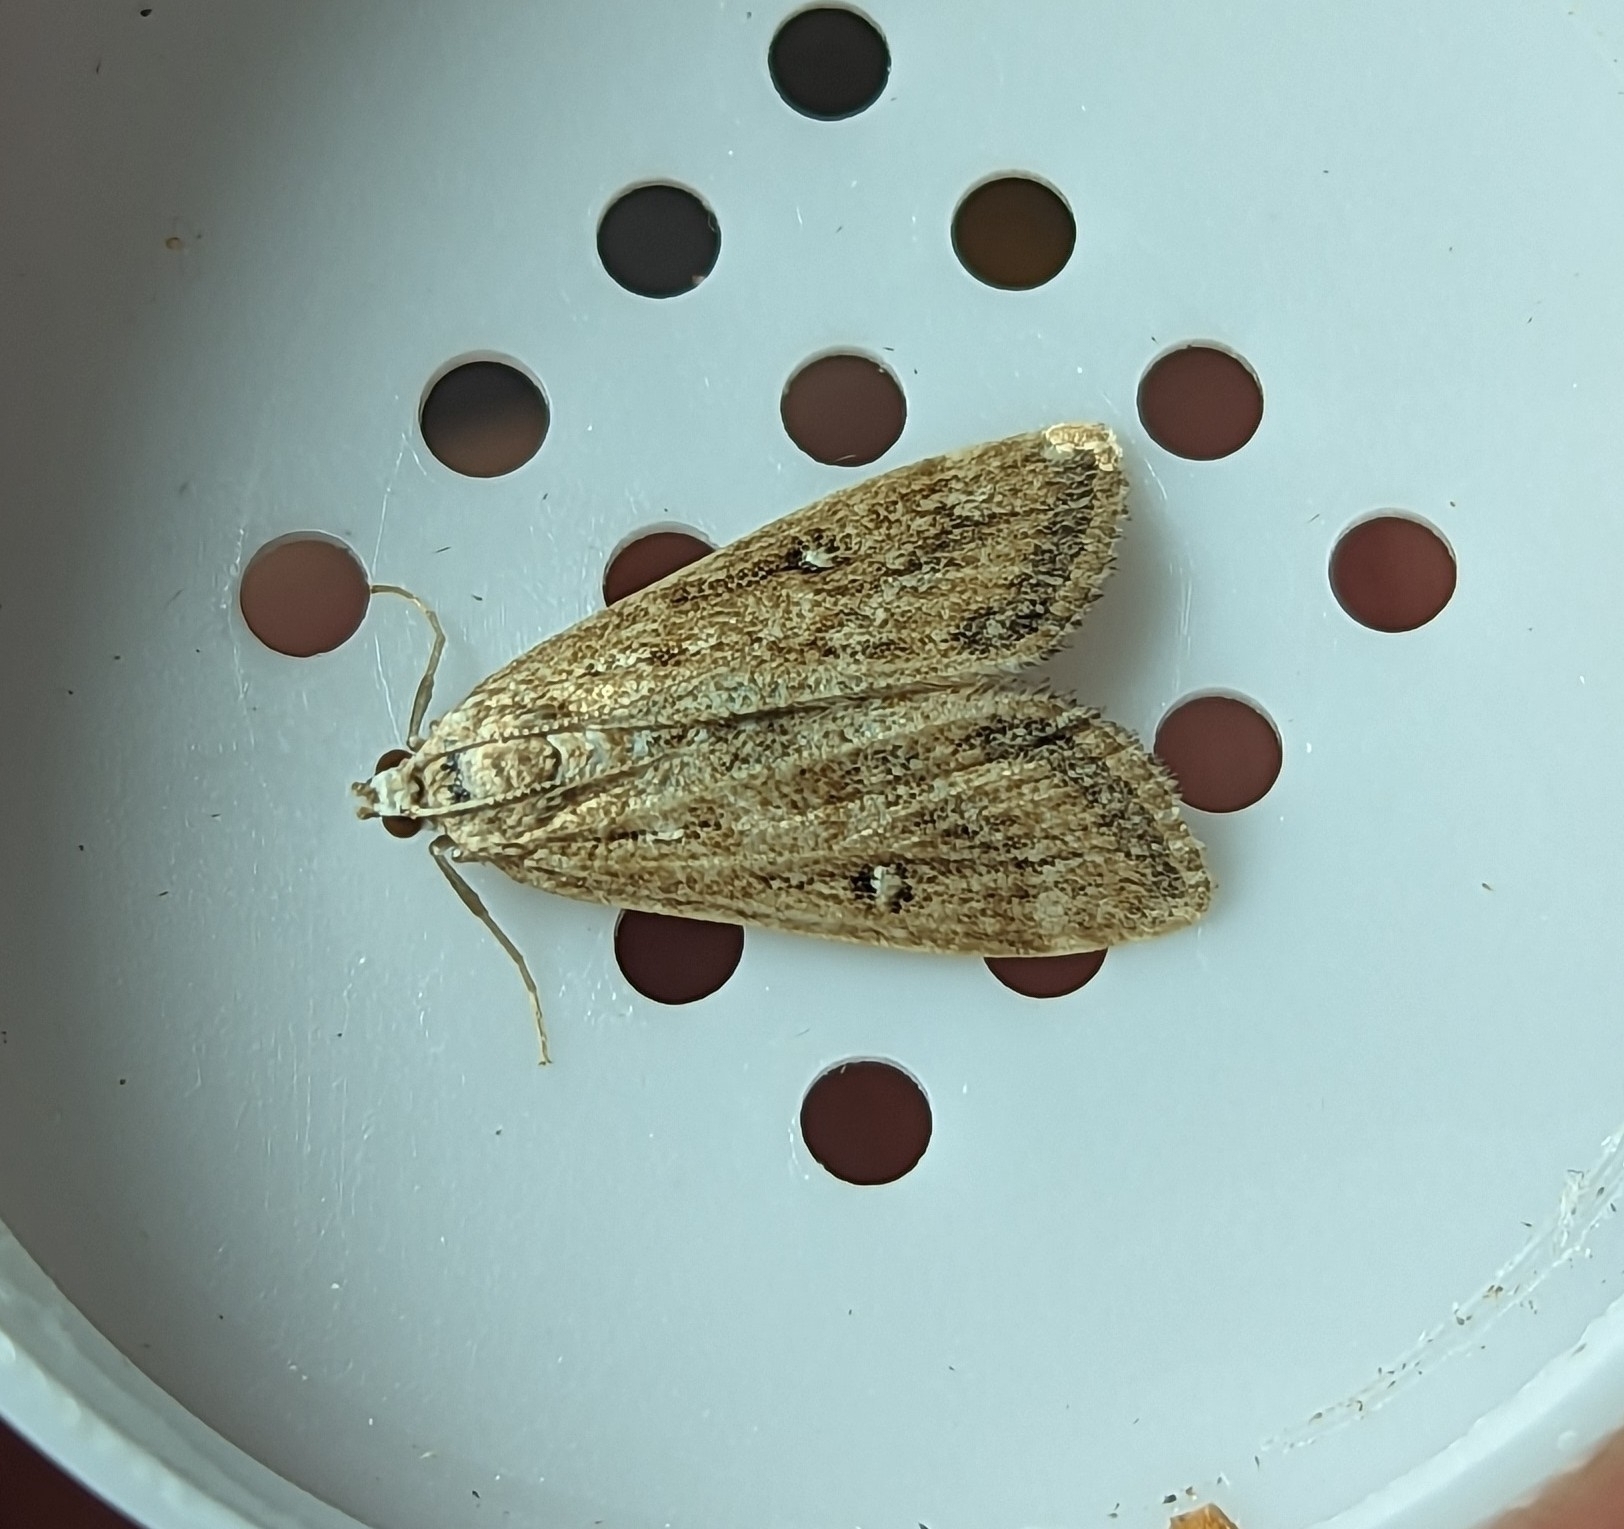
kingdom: Animalia
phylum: Arthropoda
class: Insecta
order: Lepidoptera
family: Crambidae
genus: Parapoynx
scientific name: Parapoynx stratiotata
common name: Ringed china-mark
